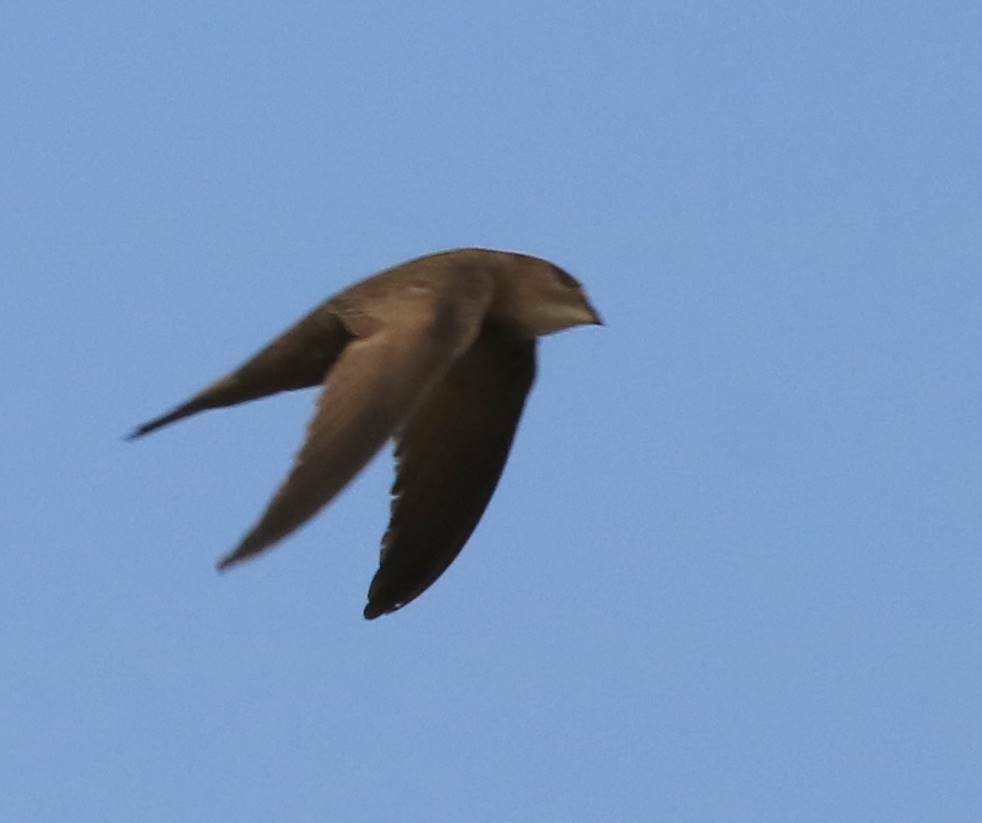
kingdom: Animalia
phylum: Chordata
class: Aves
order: Apodiformes
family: Apodidae
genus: Apus
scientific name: Apus pallidus
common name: Pallid swift
